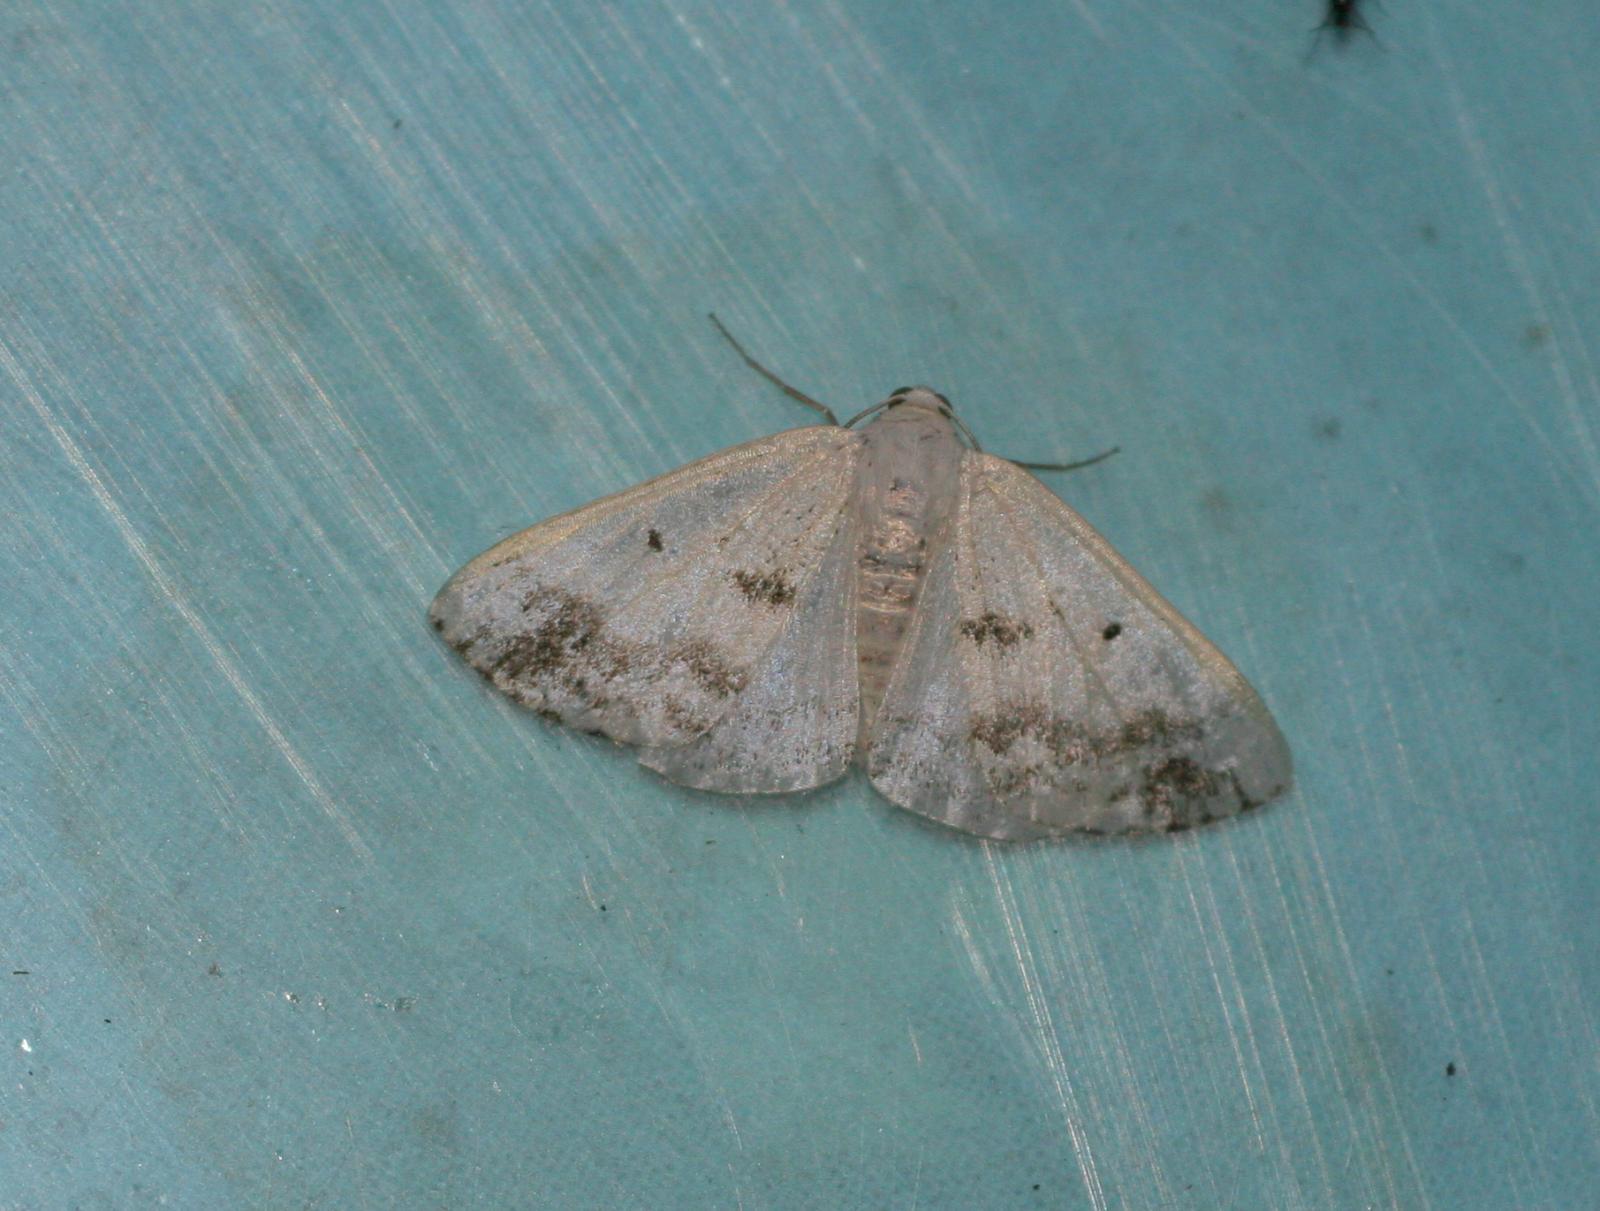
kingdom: Animalia
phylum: Arthropoda
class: Insecta
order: Lepidoptera
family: Geometridae
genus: Lomographa
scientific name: Lomographa temerata
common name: Clouded silver
